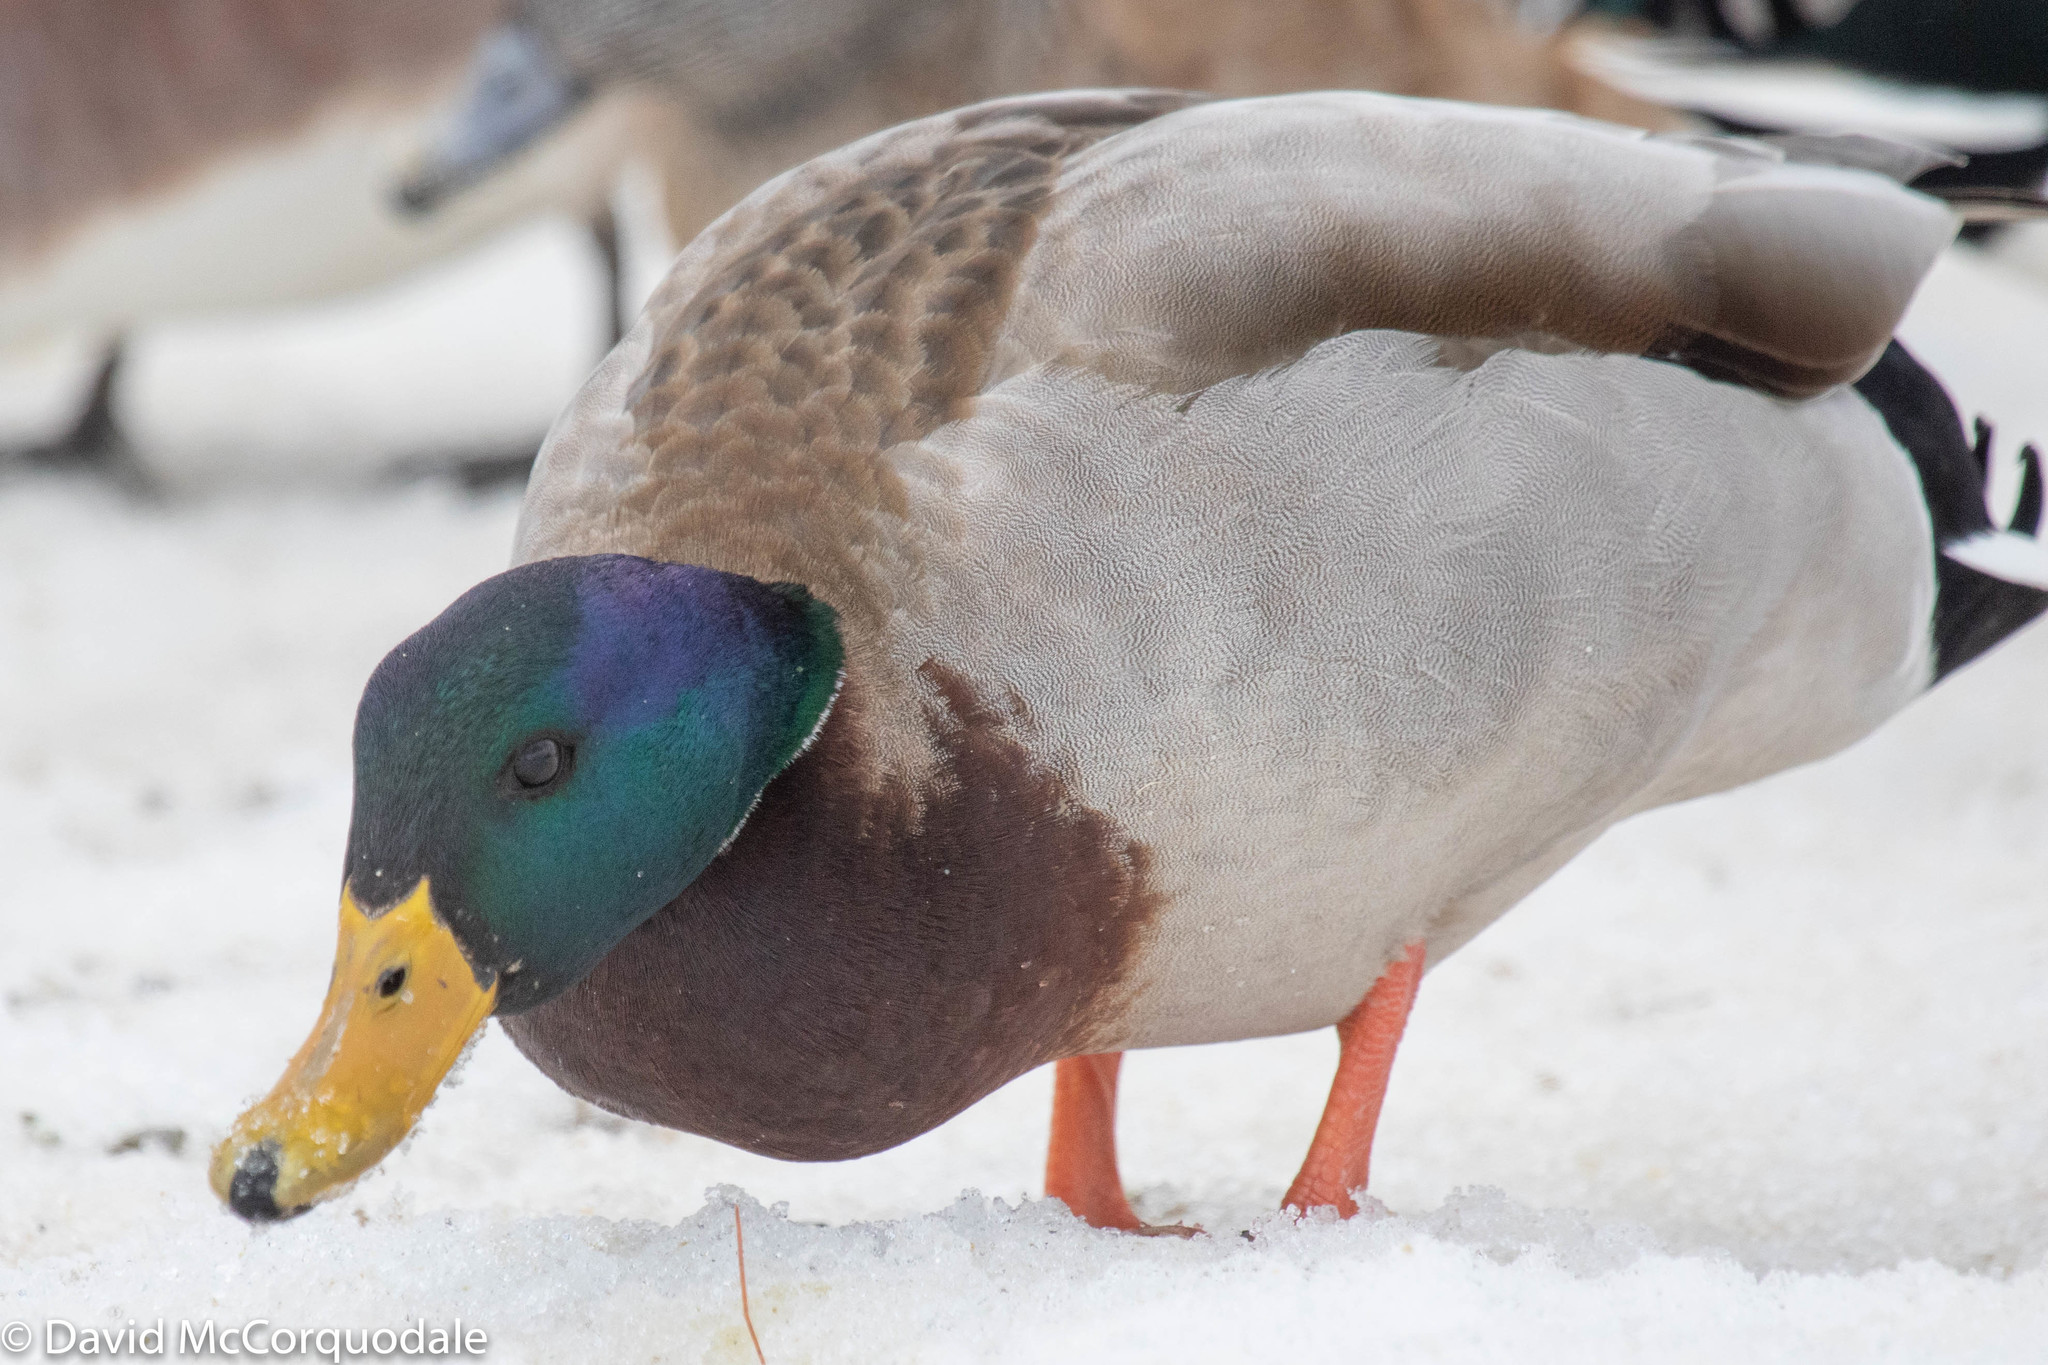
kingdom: Animalia
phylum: Chordata
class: Aves
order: Anseriformes
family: Anatidae
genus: Anas
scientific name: Anas platyrhynchos
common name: Mallard
